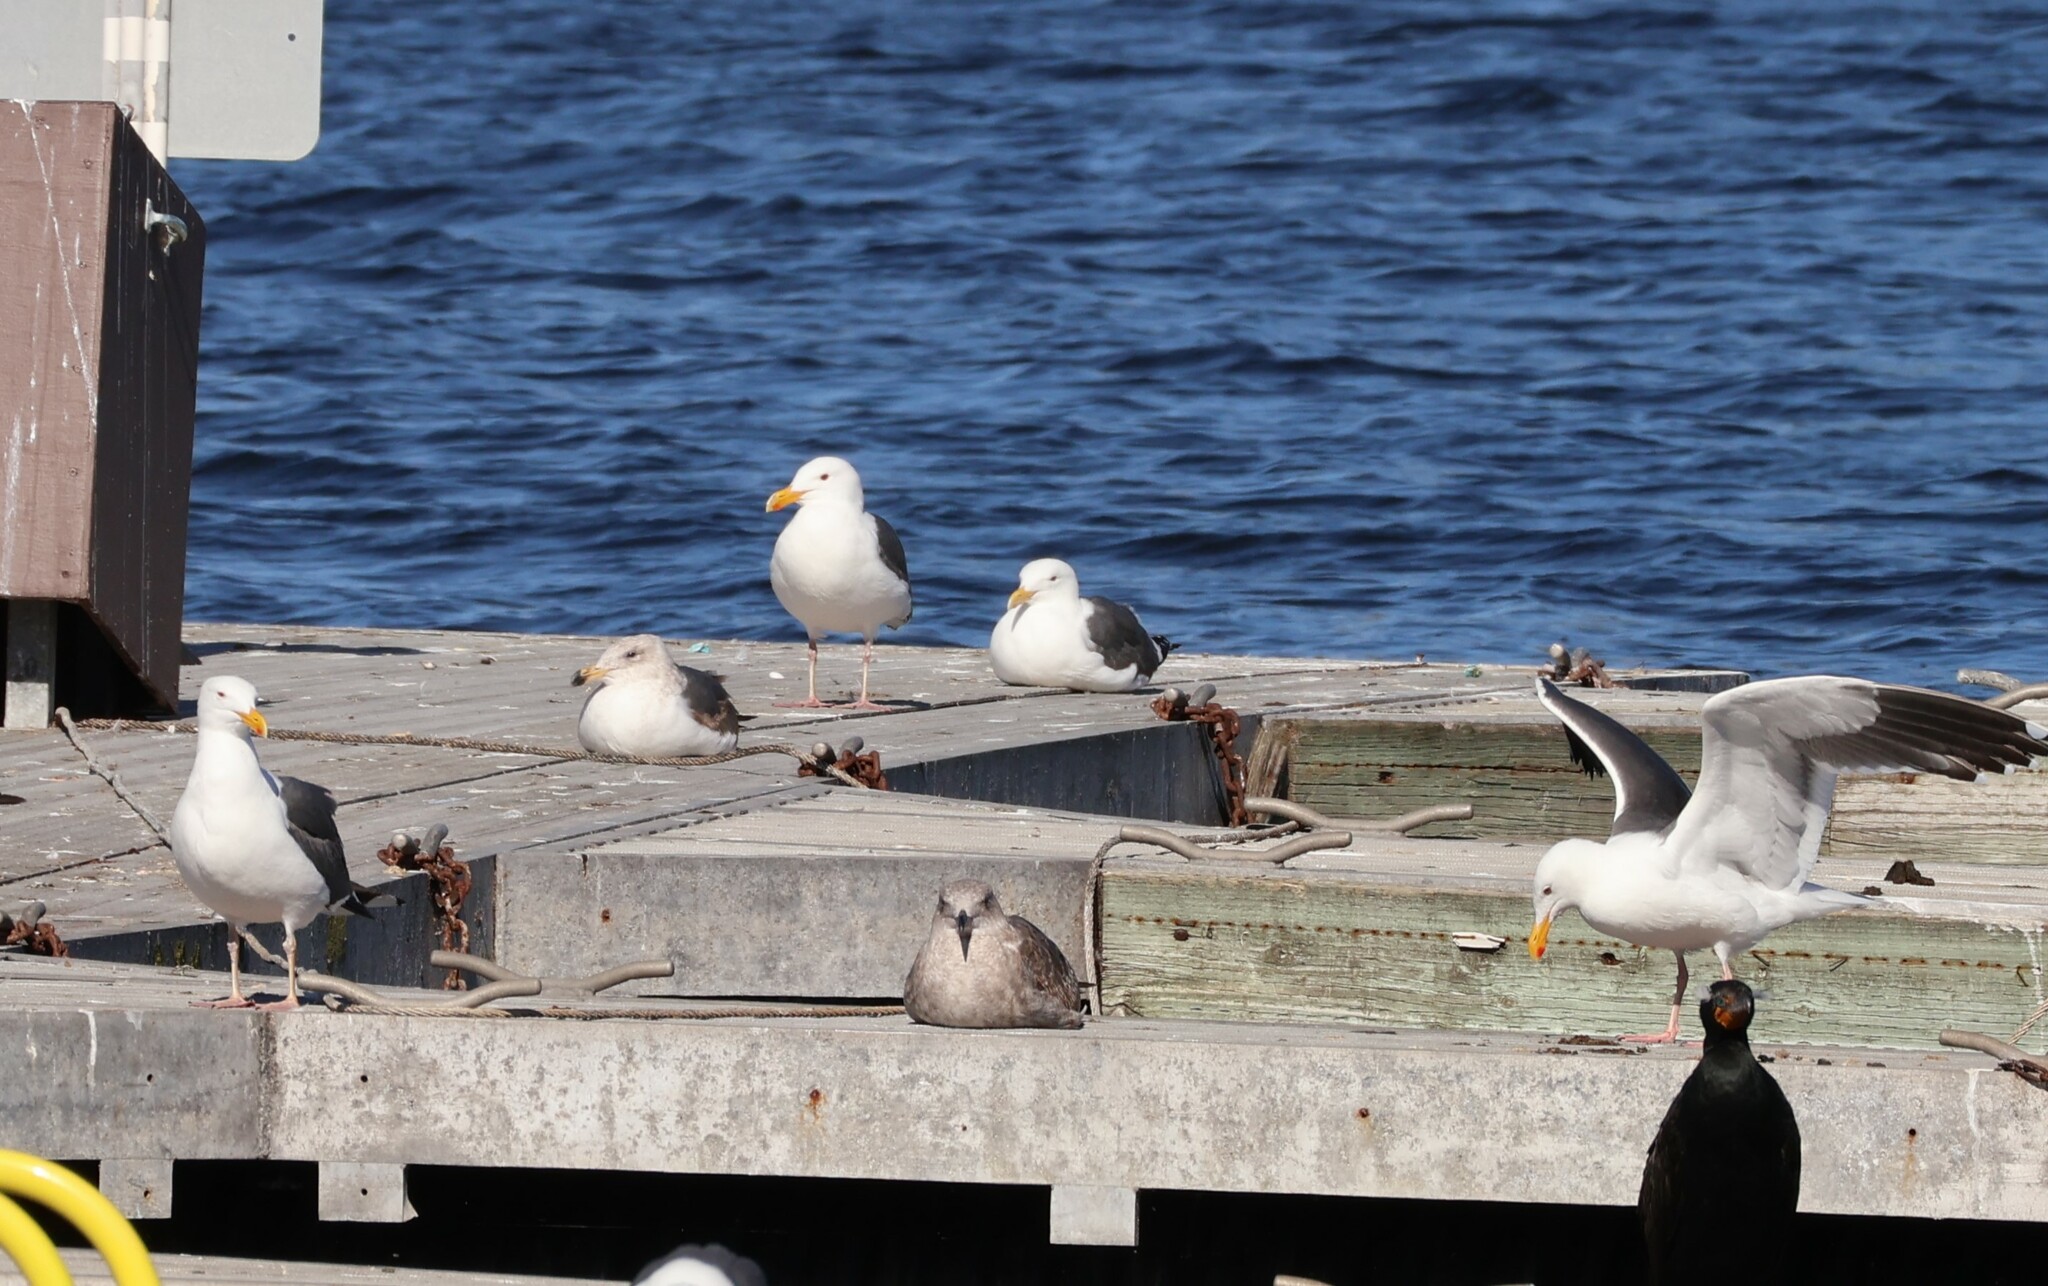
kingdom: Animalia
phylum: Chordata
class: Aves
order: Charadriiformes
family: Laridae
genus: Larus
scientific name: Larus occidentalis
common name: Western gull
